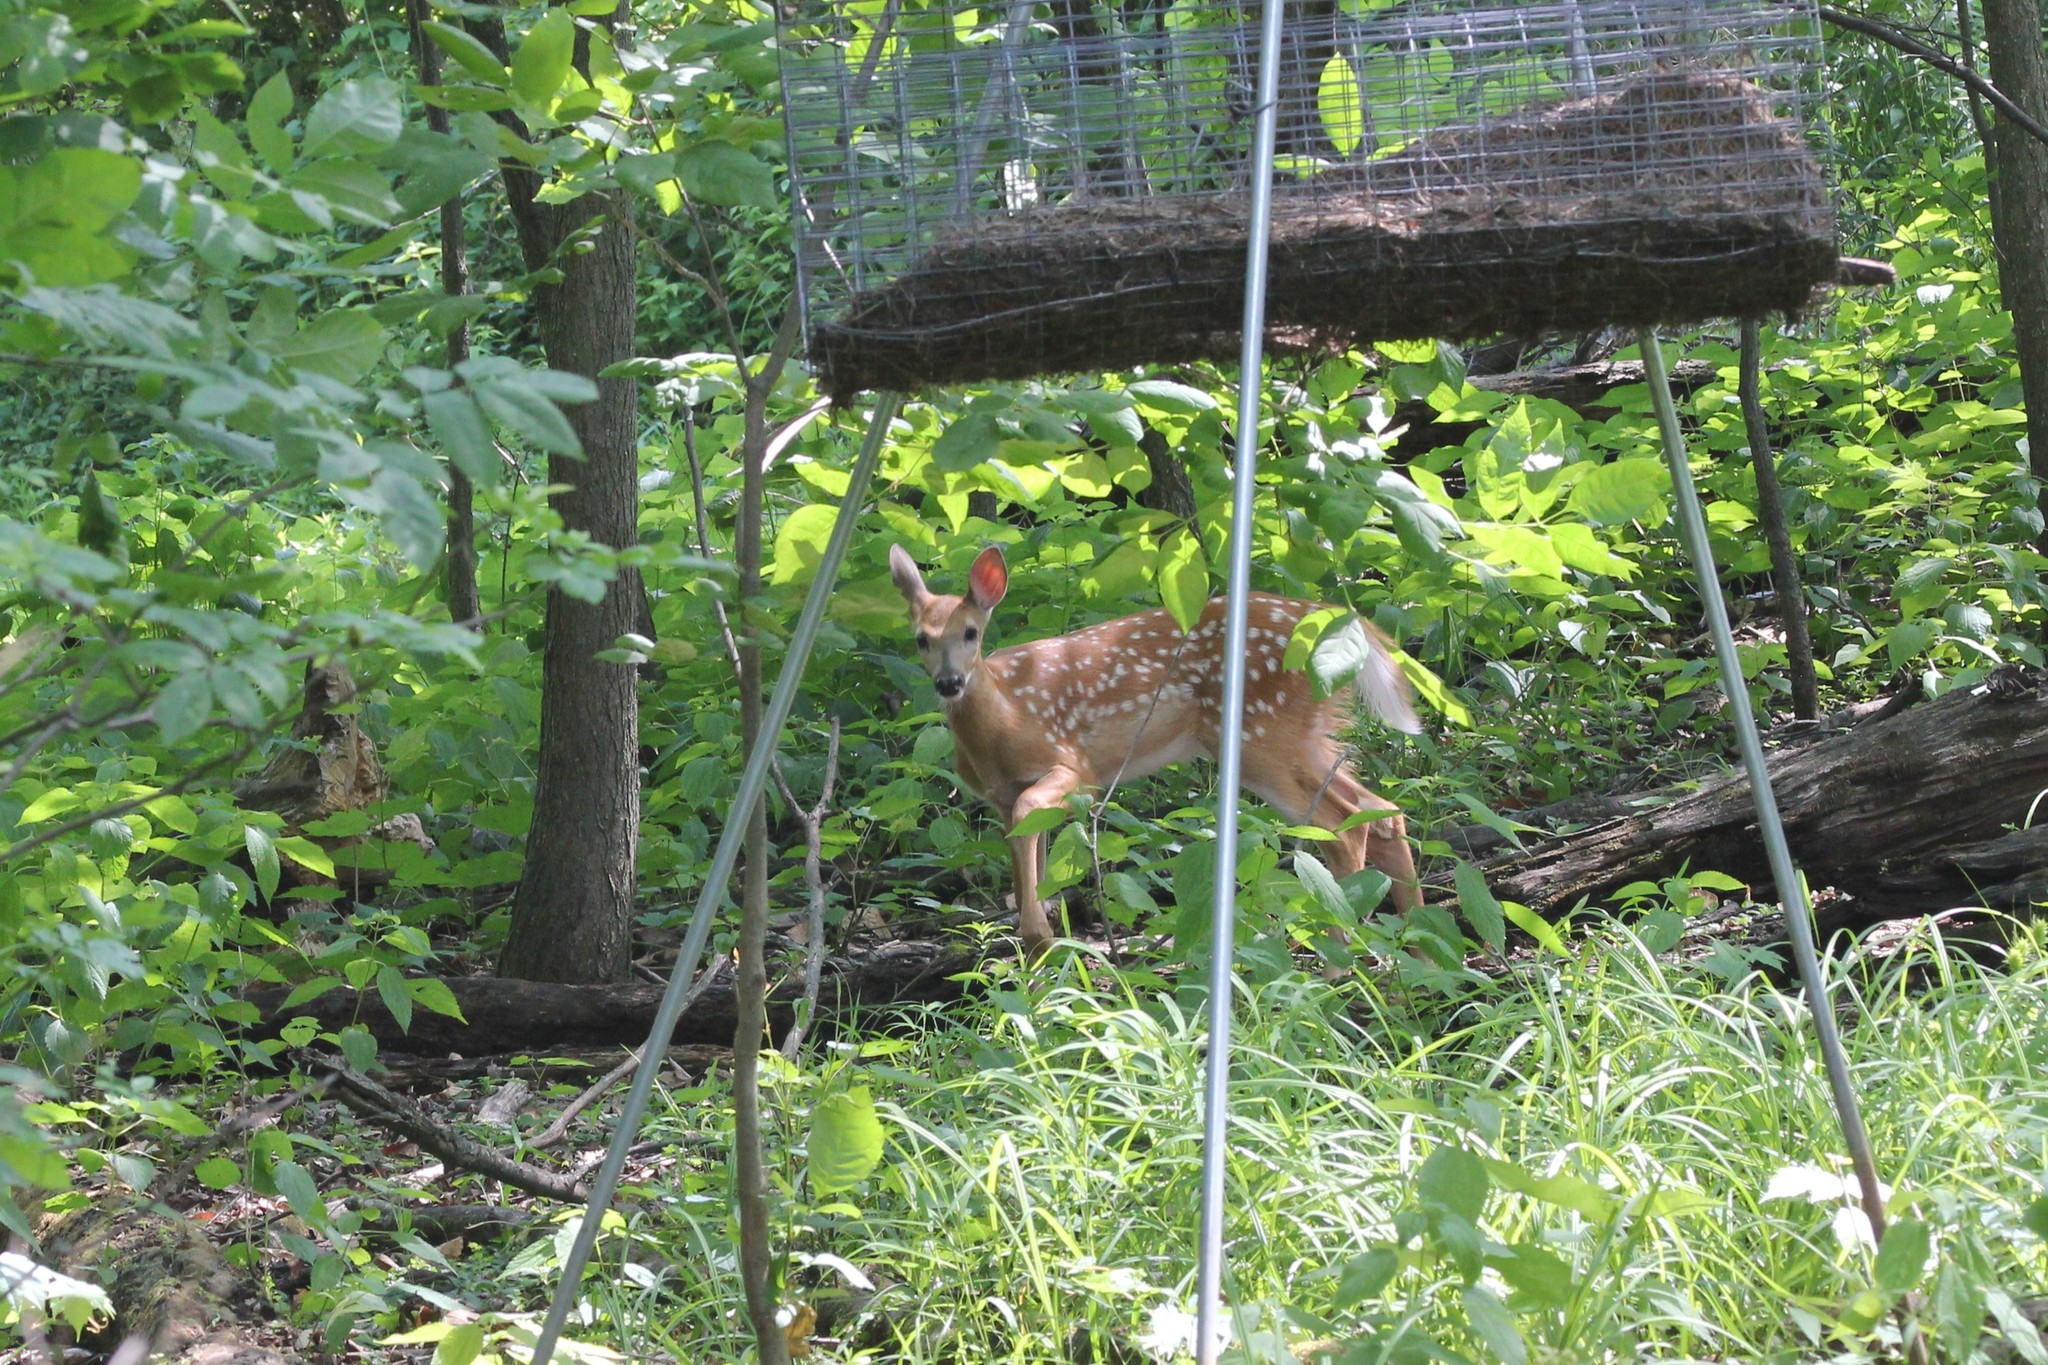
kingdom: Animalia
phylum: Chordata
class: Mammalia
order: Artiodactyla
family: Cervidae
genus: Odocoileus
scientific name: Odocoileus virginianus
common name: White-tailed deer
